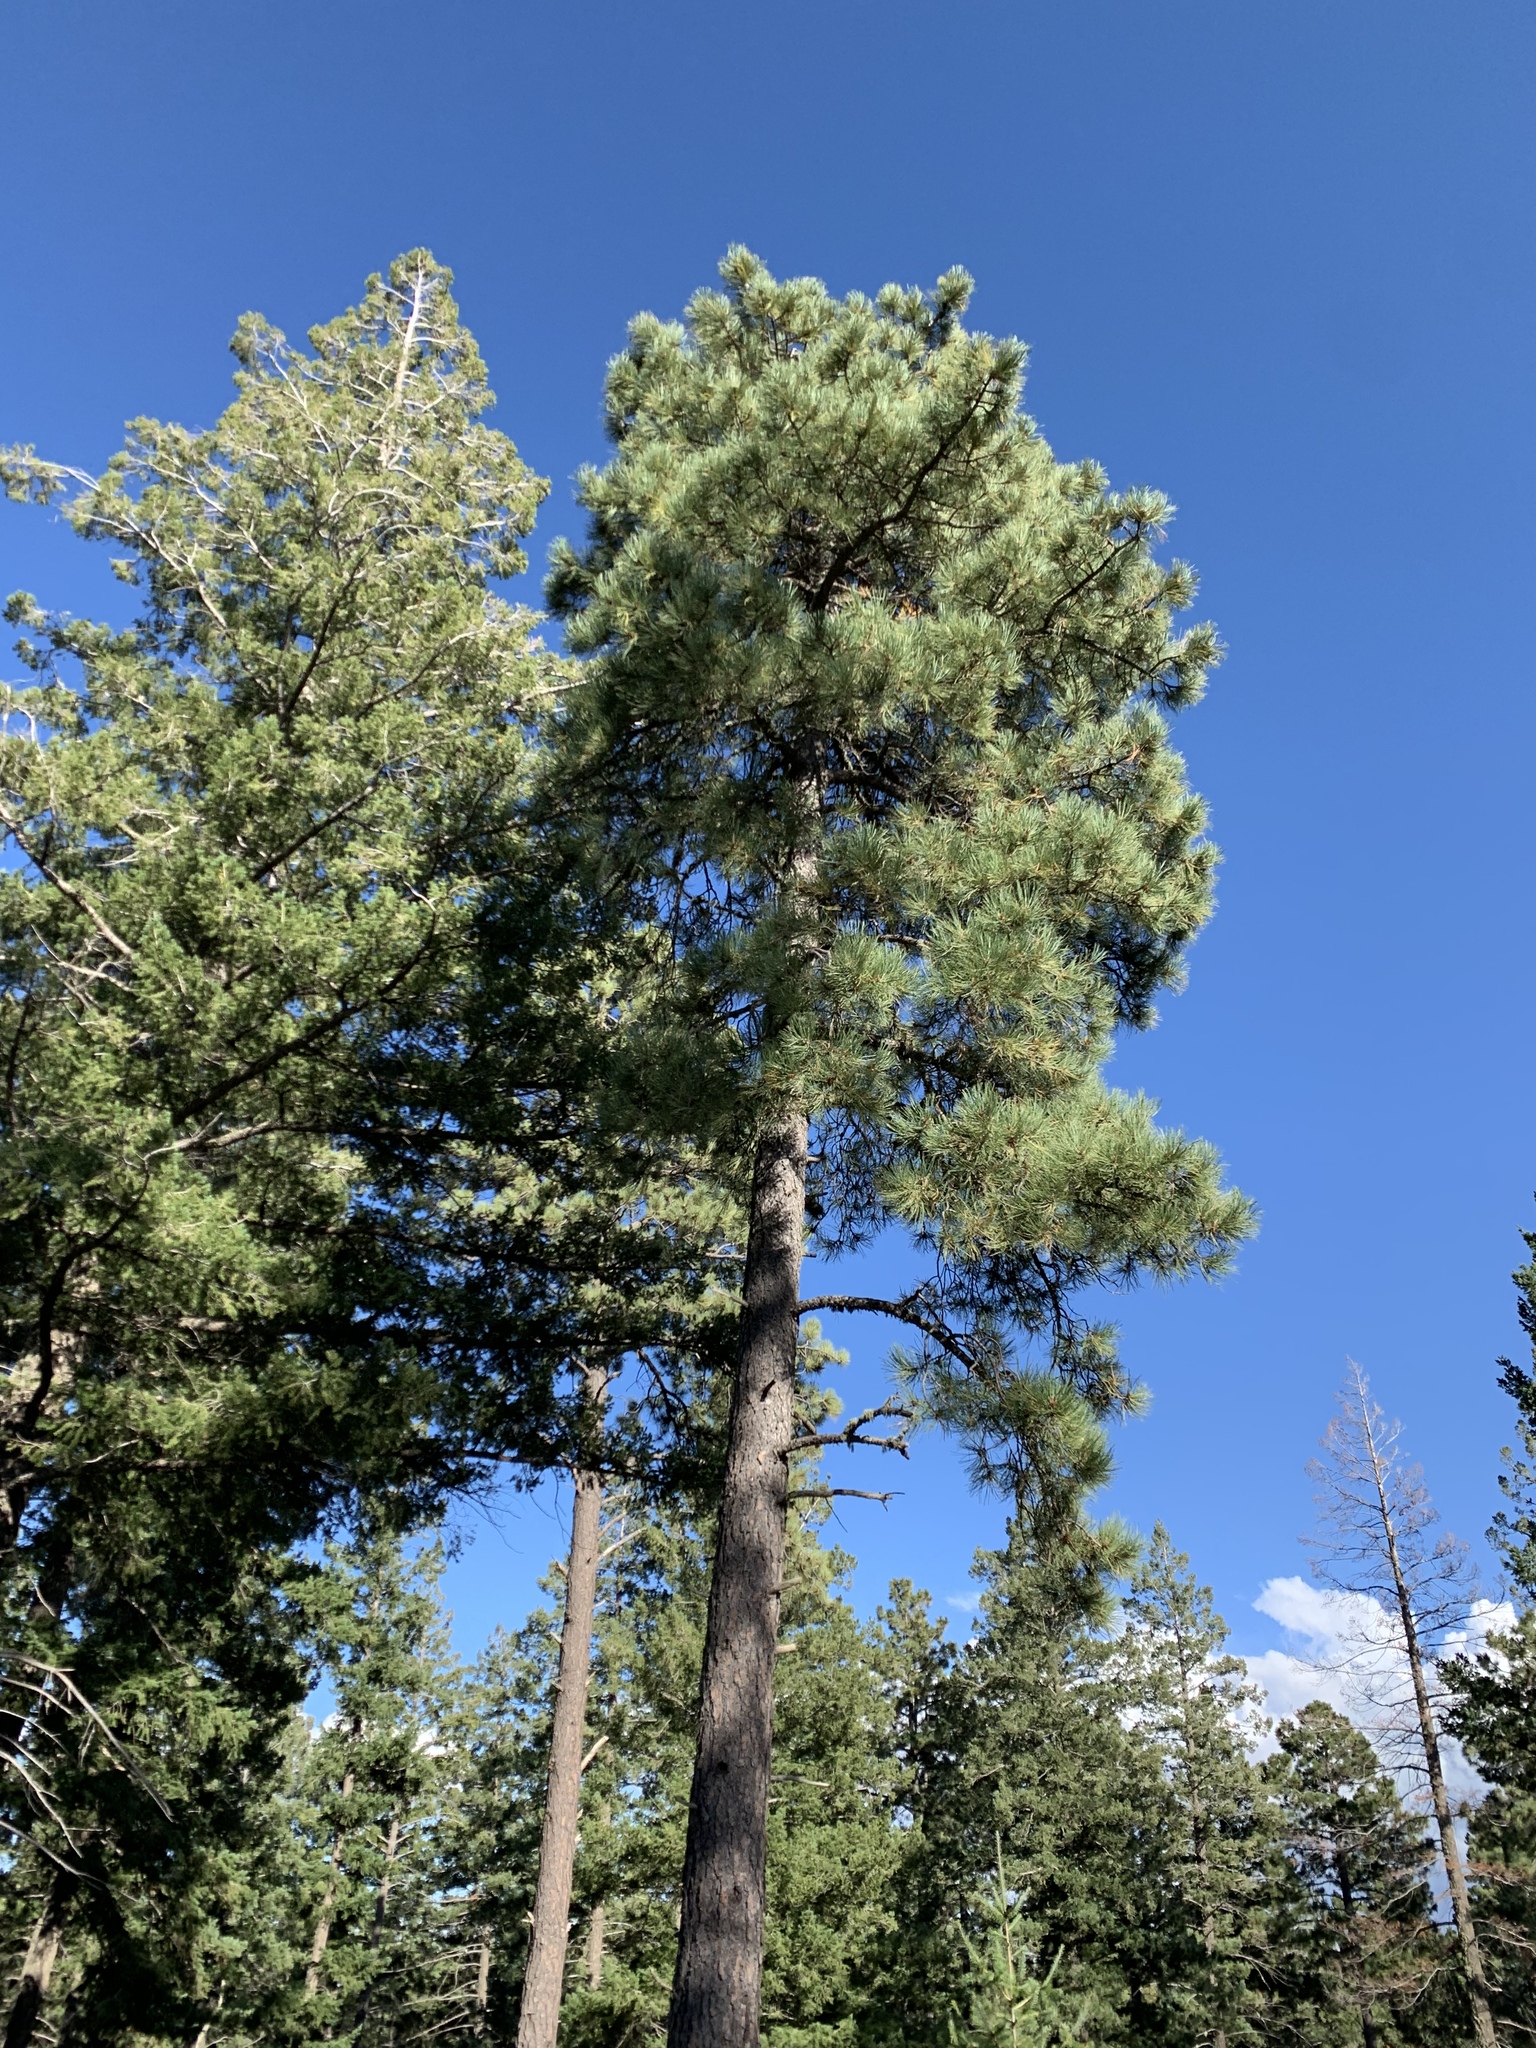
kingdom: Plantae
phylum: Tracheophyta
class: Pinopsida
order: Pinales
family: Pinaceae
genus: Pinus
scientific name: Pinus ponderosa
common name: Western yellow-pine
